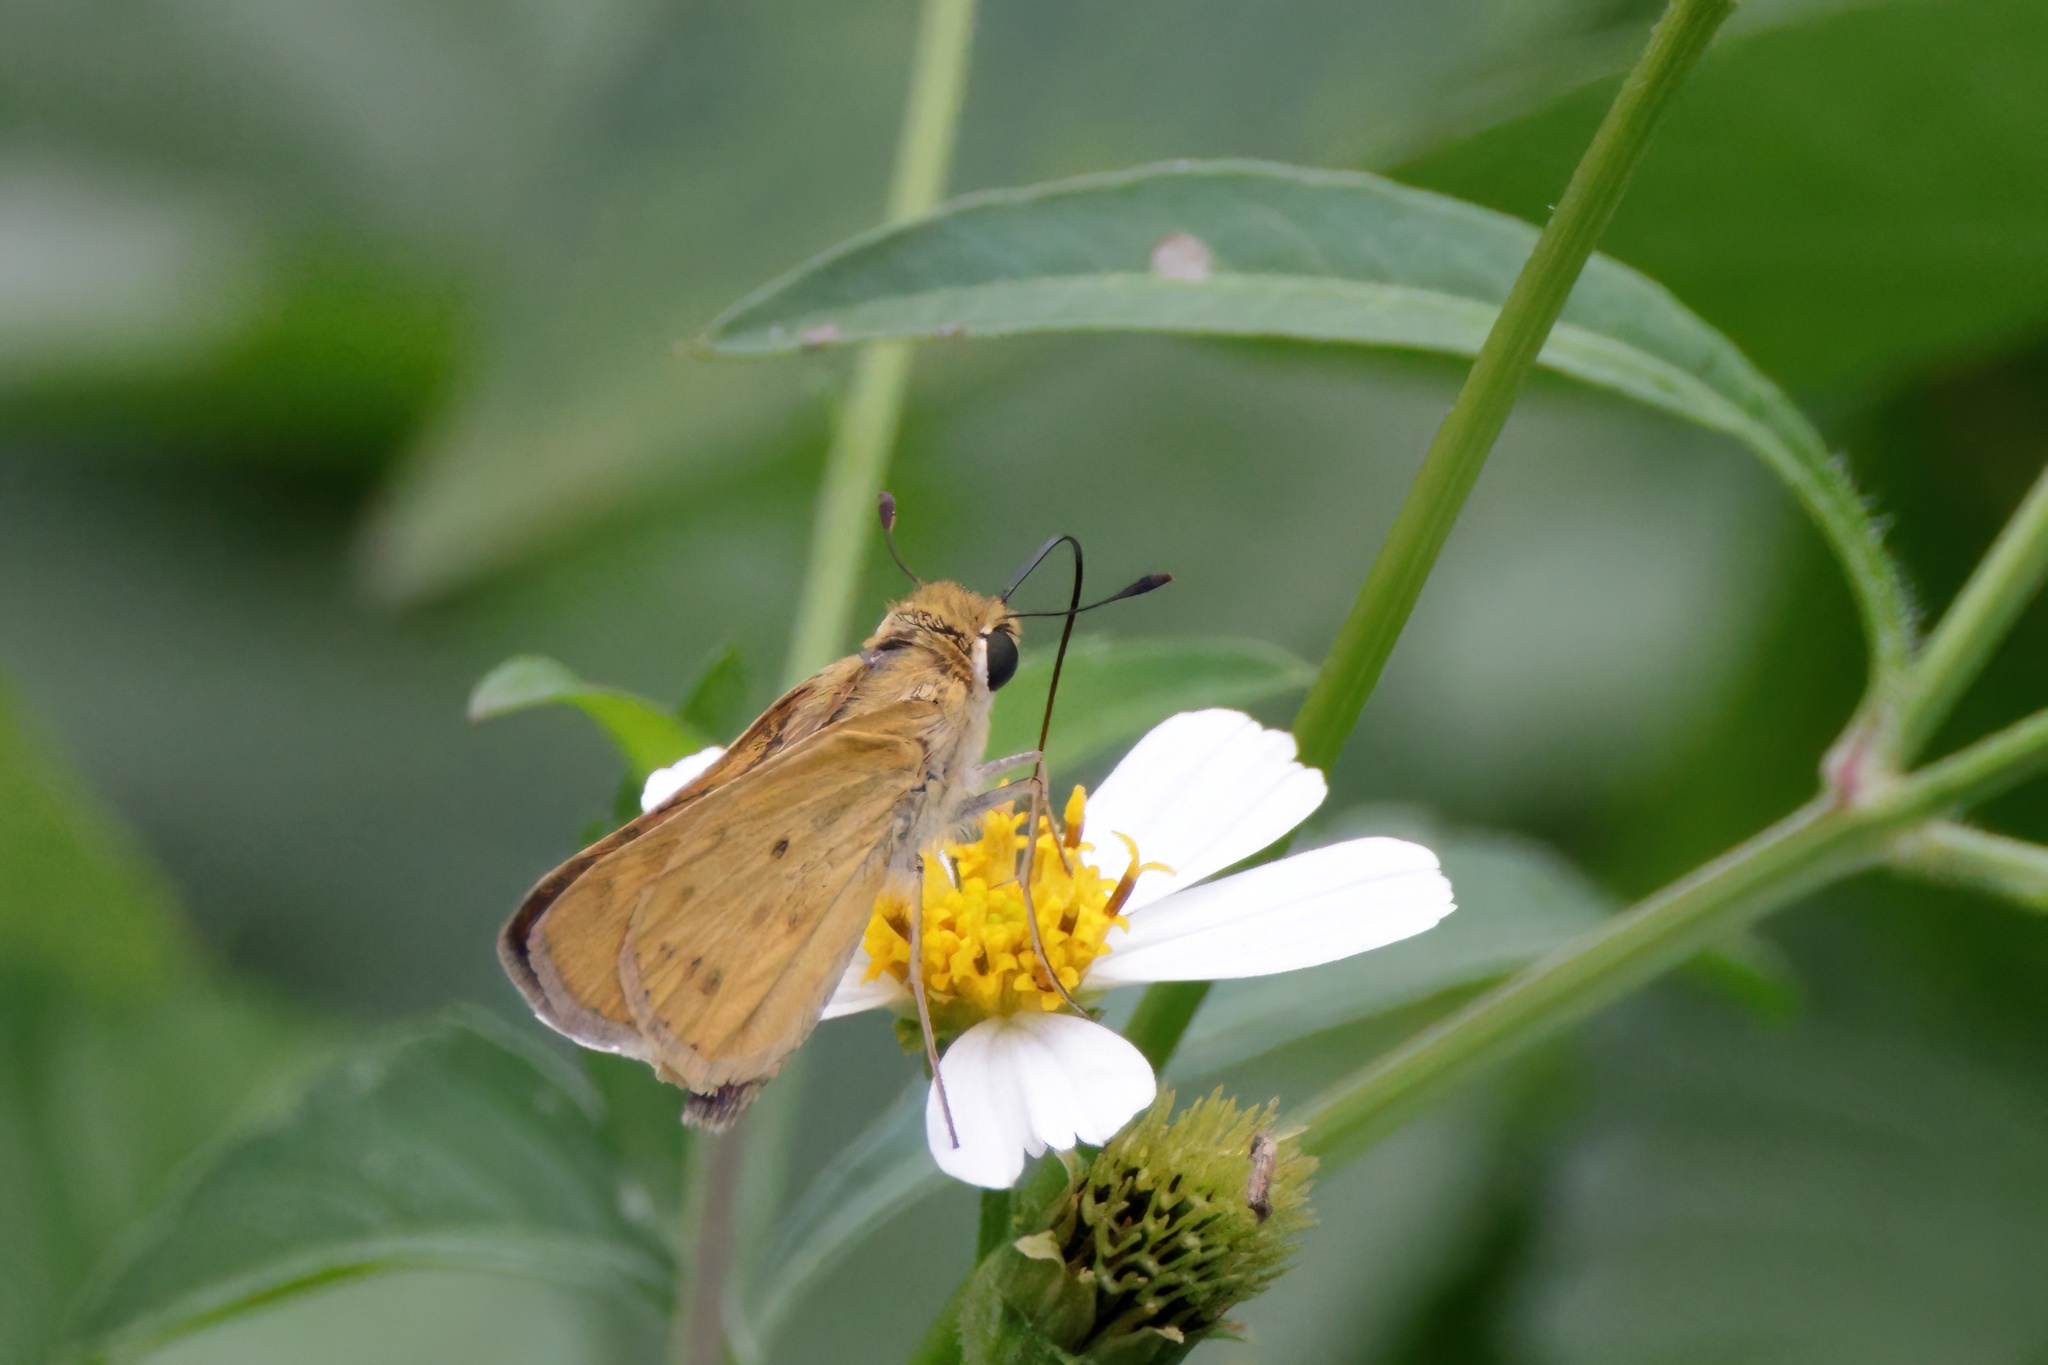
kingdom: Animalia
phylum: Arthropoda
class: Insecta
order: Lepidoptera
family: Hesperiidae
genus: Hylephila
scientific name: Hylephila phyleus
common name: Fiery skipper
